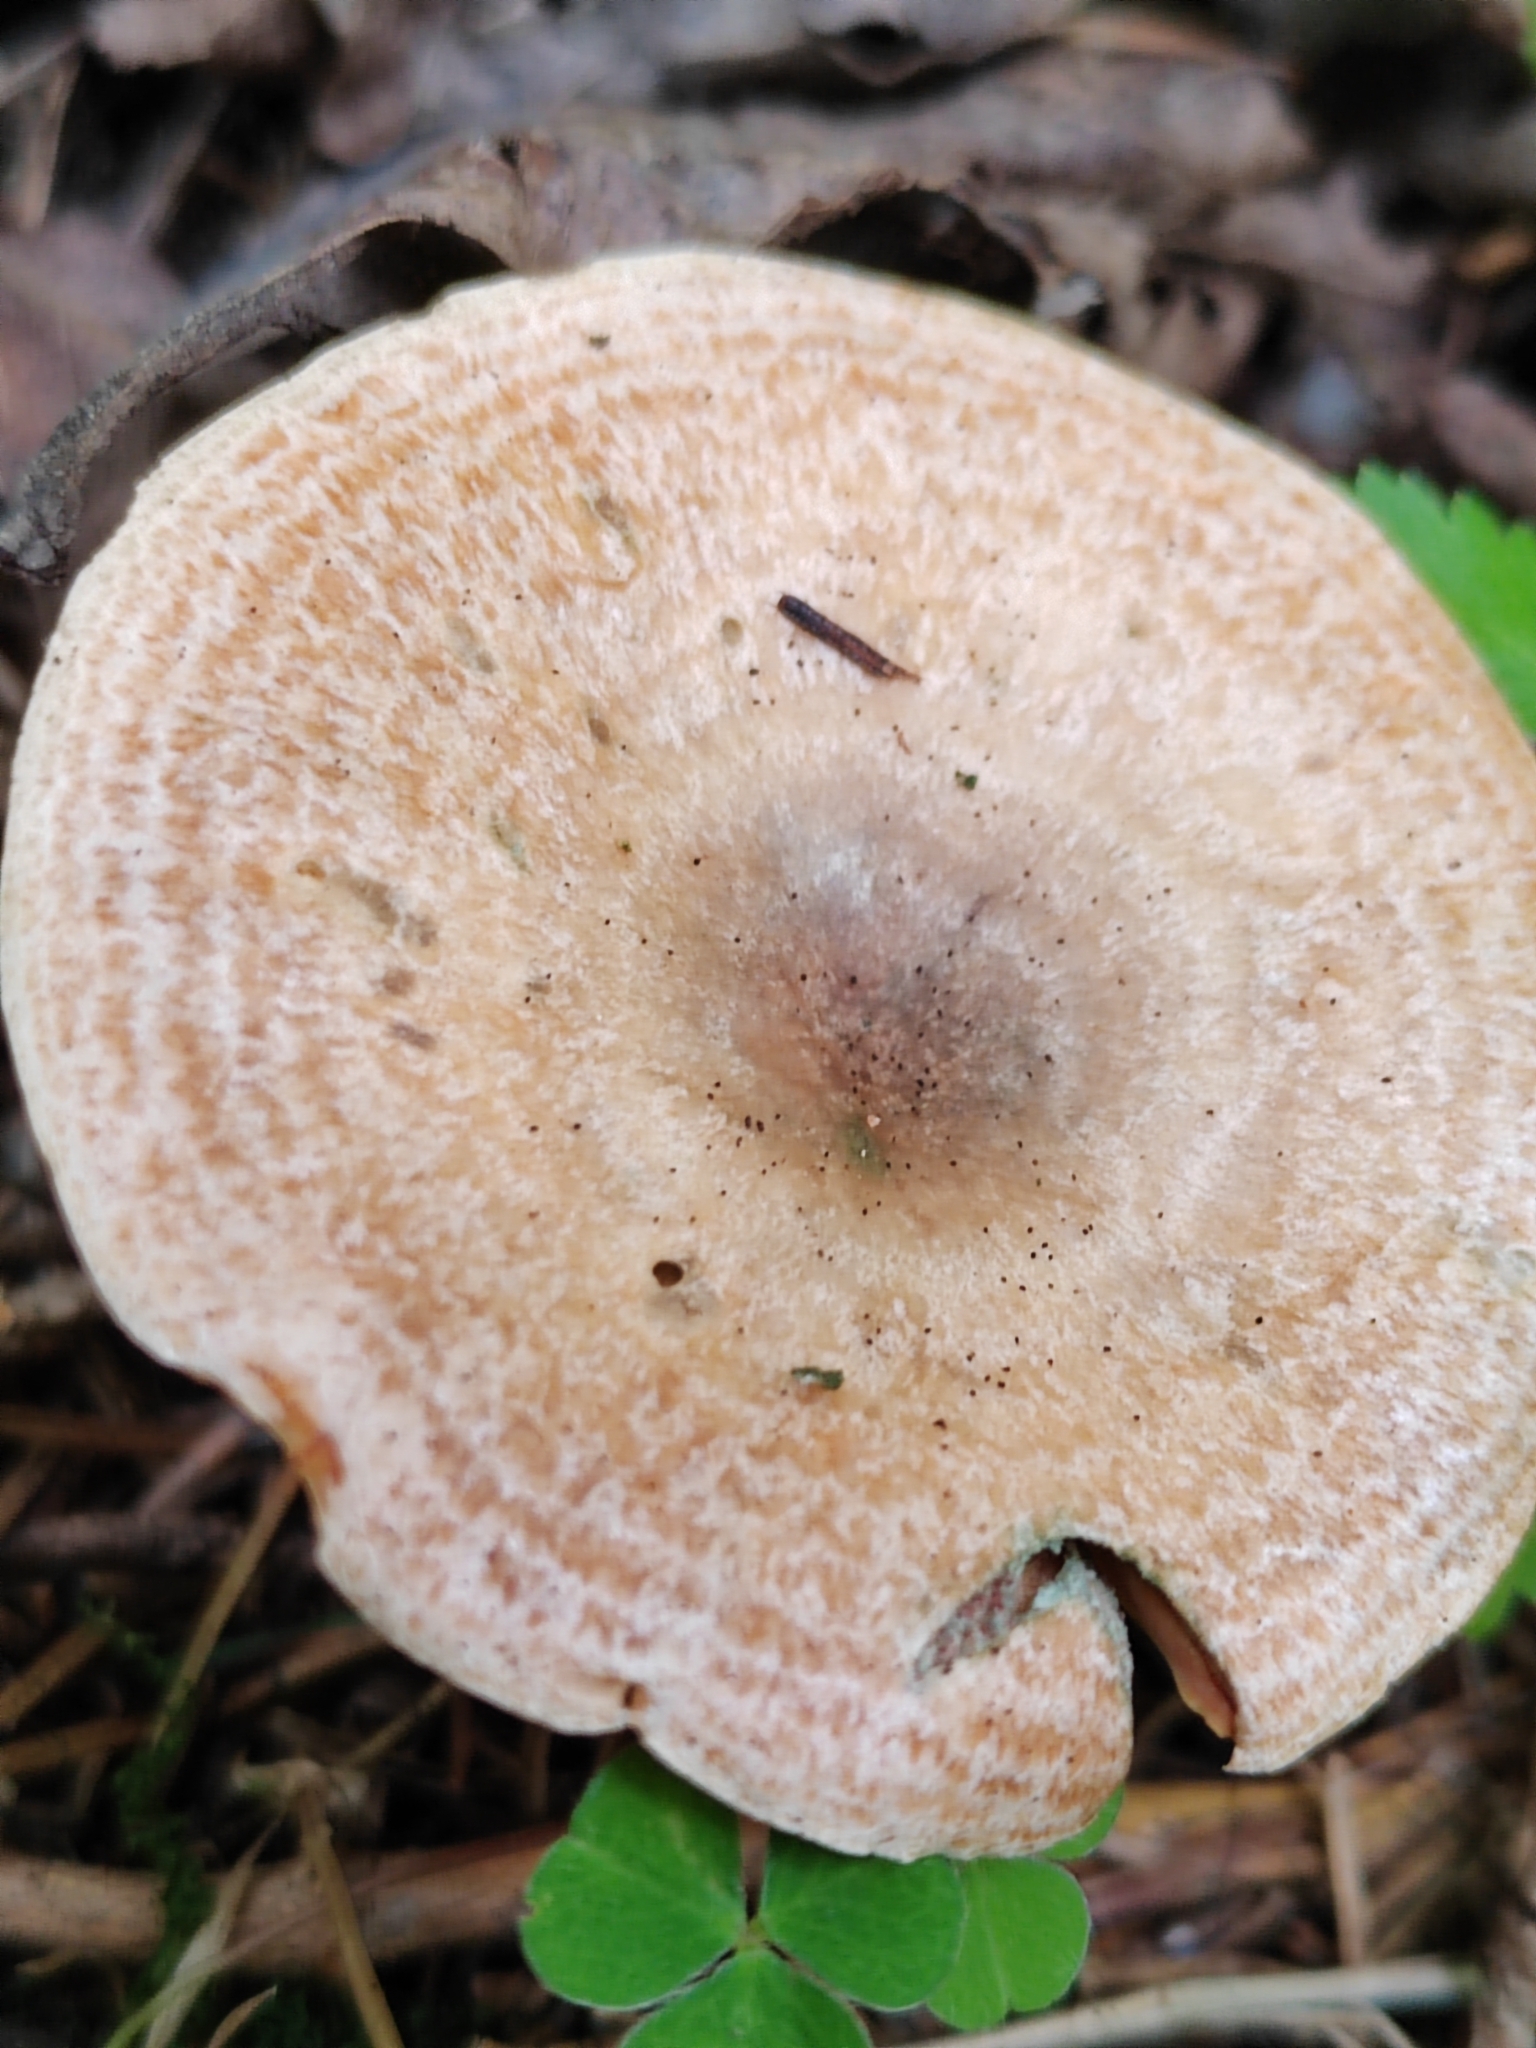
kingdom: Fungi
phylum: Basidiomycota
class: Agaricomycetes
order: Russulales
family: Russulaceae
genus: Lactarius
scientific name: Lactarius deterrimus
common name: False saffron milkcap
